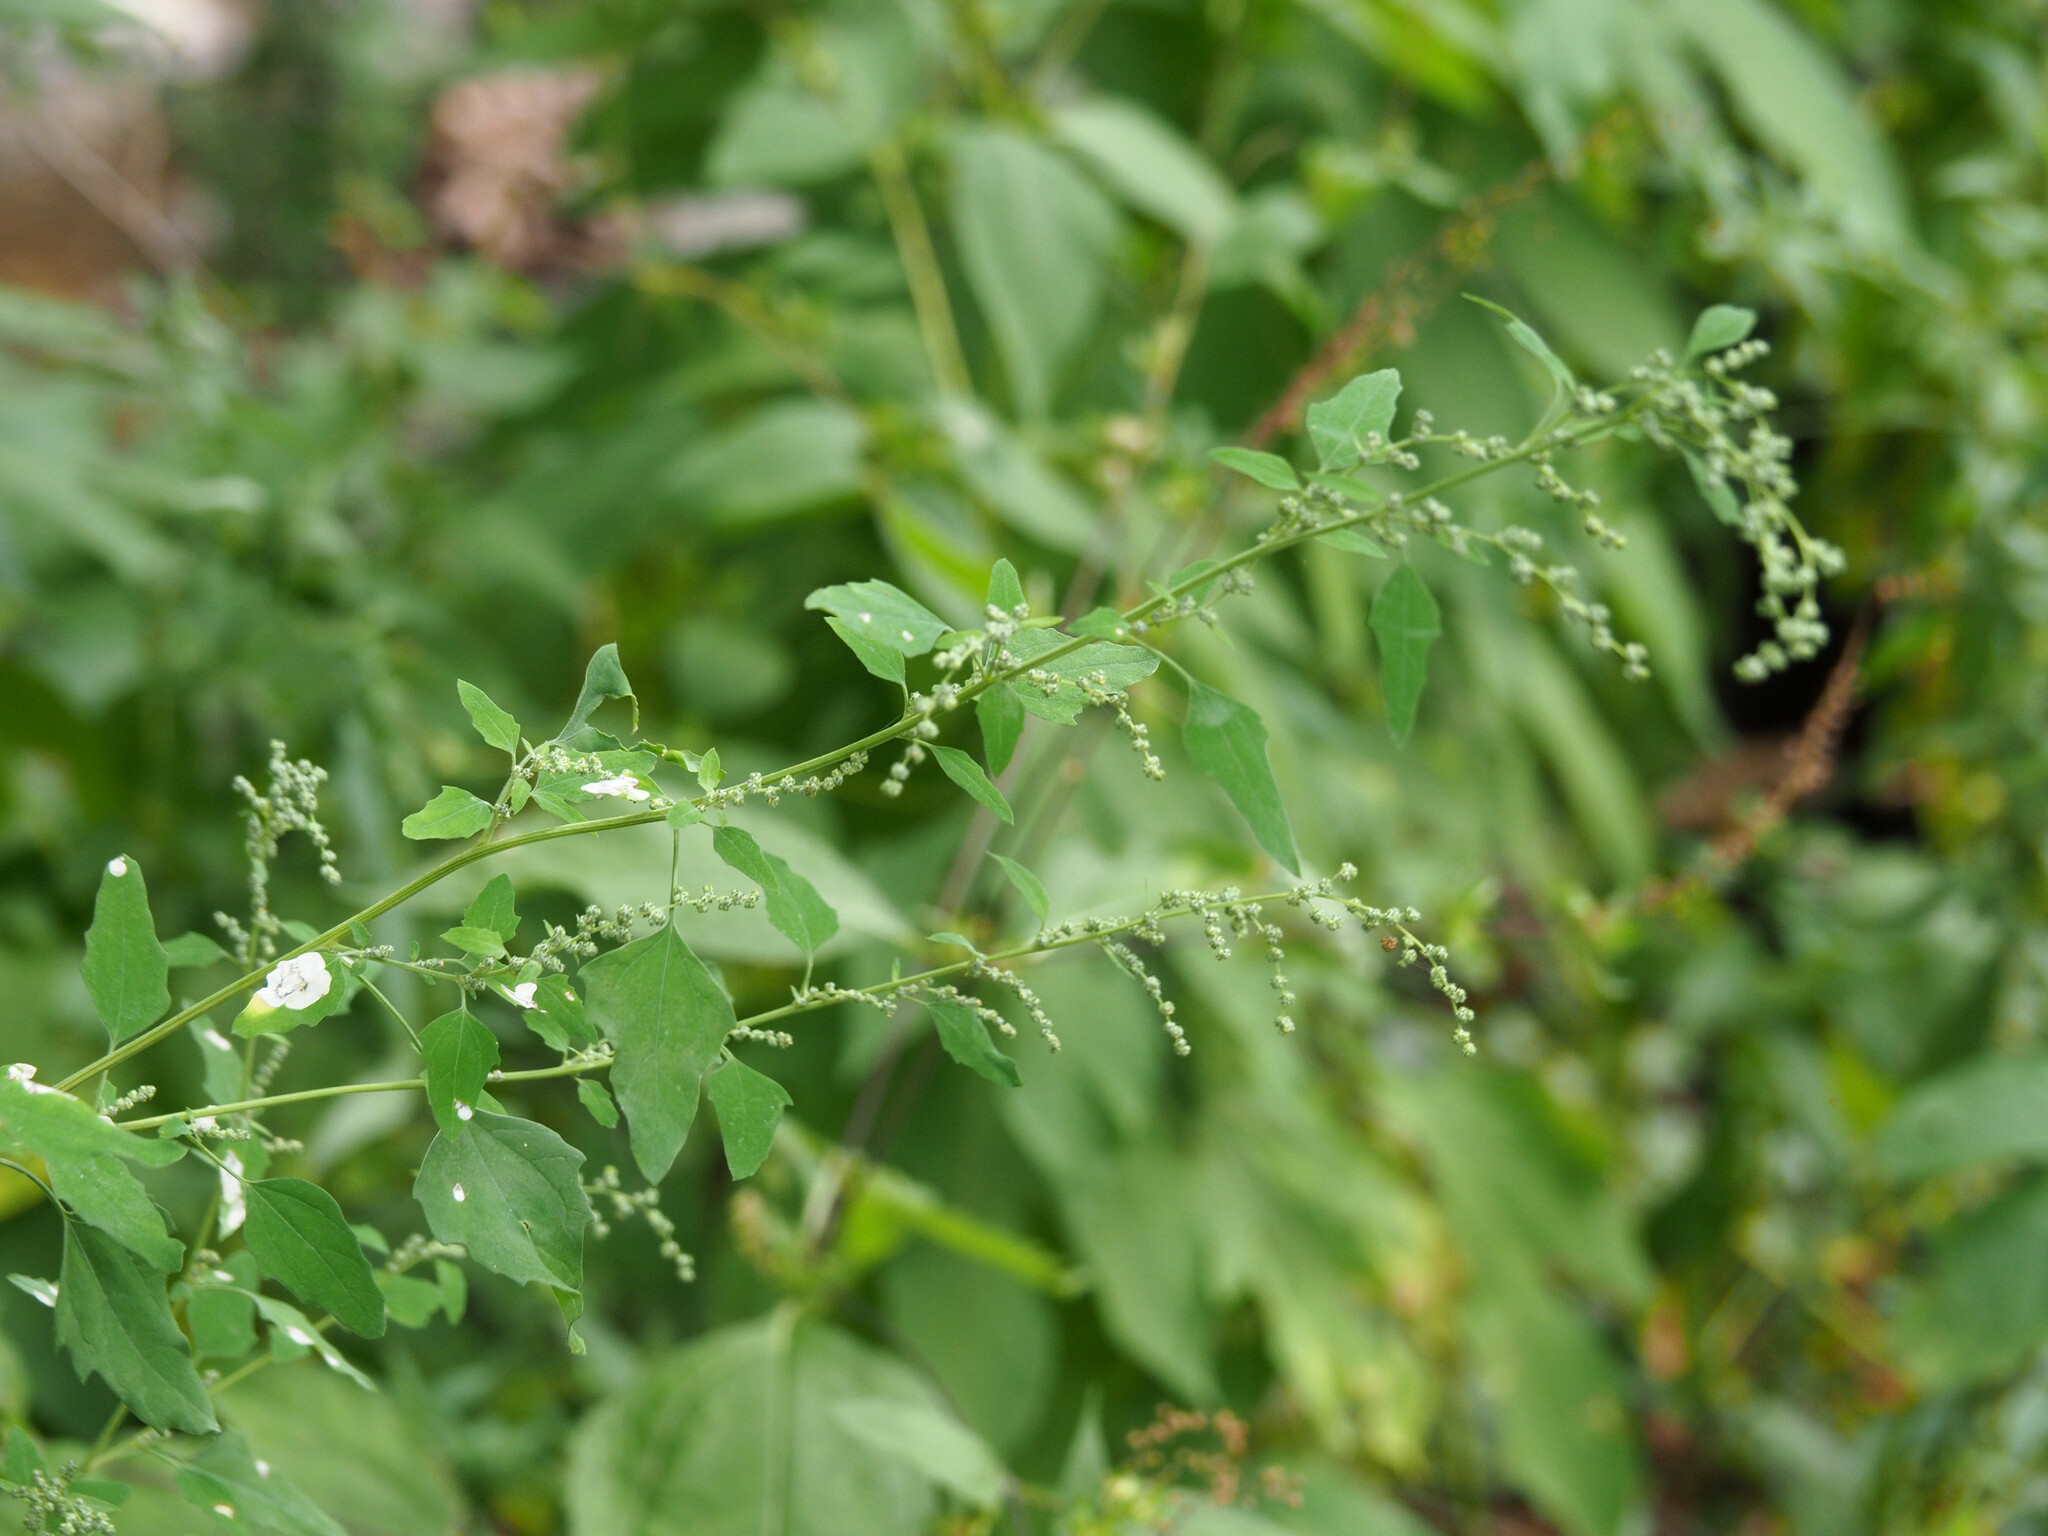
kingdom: Plantae
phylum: Tracheophyta
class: Magnoliopsida
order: Caryophyllales
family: Amaranthaceae
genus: Chenopodium
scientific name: Chenopodium album
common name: Fat-hen
